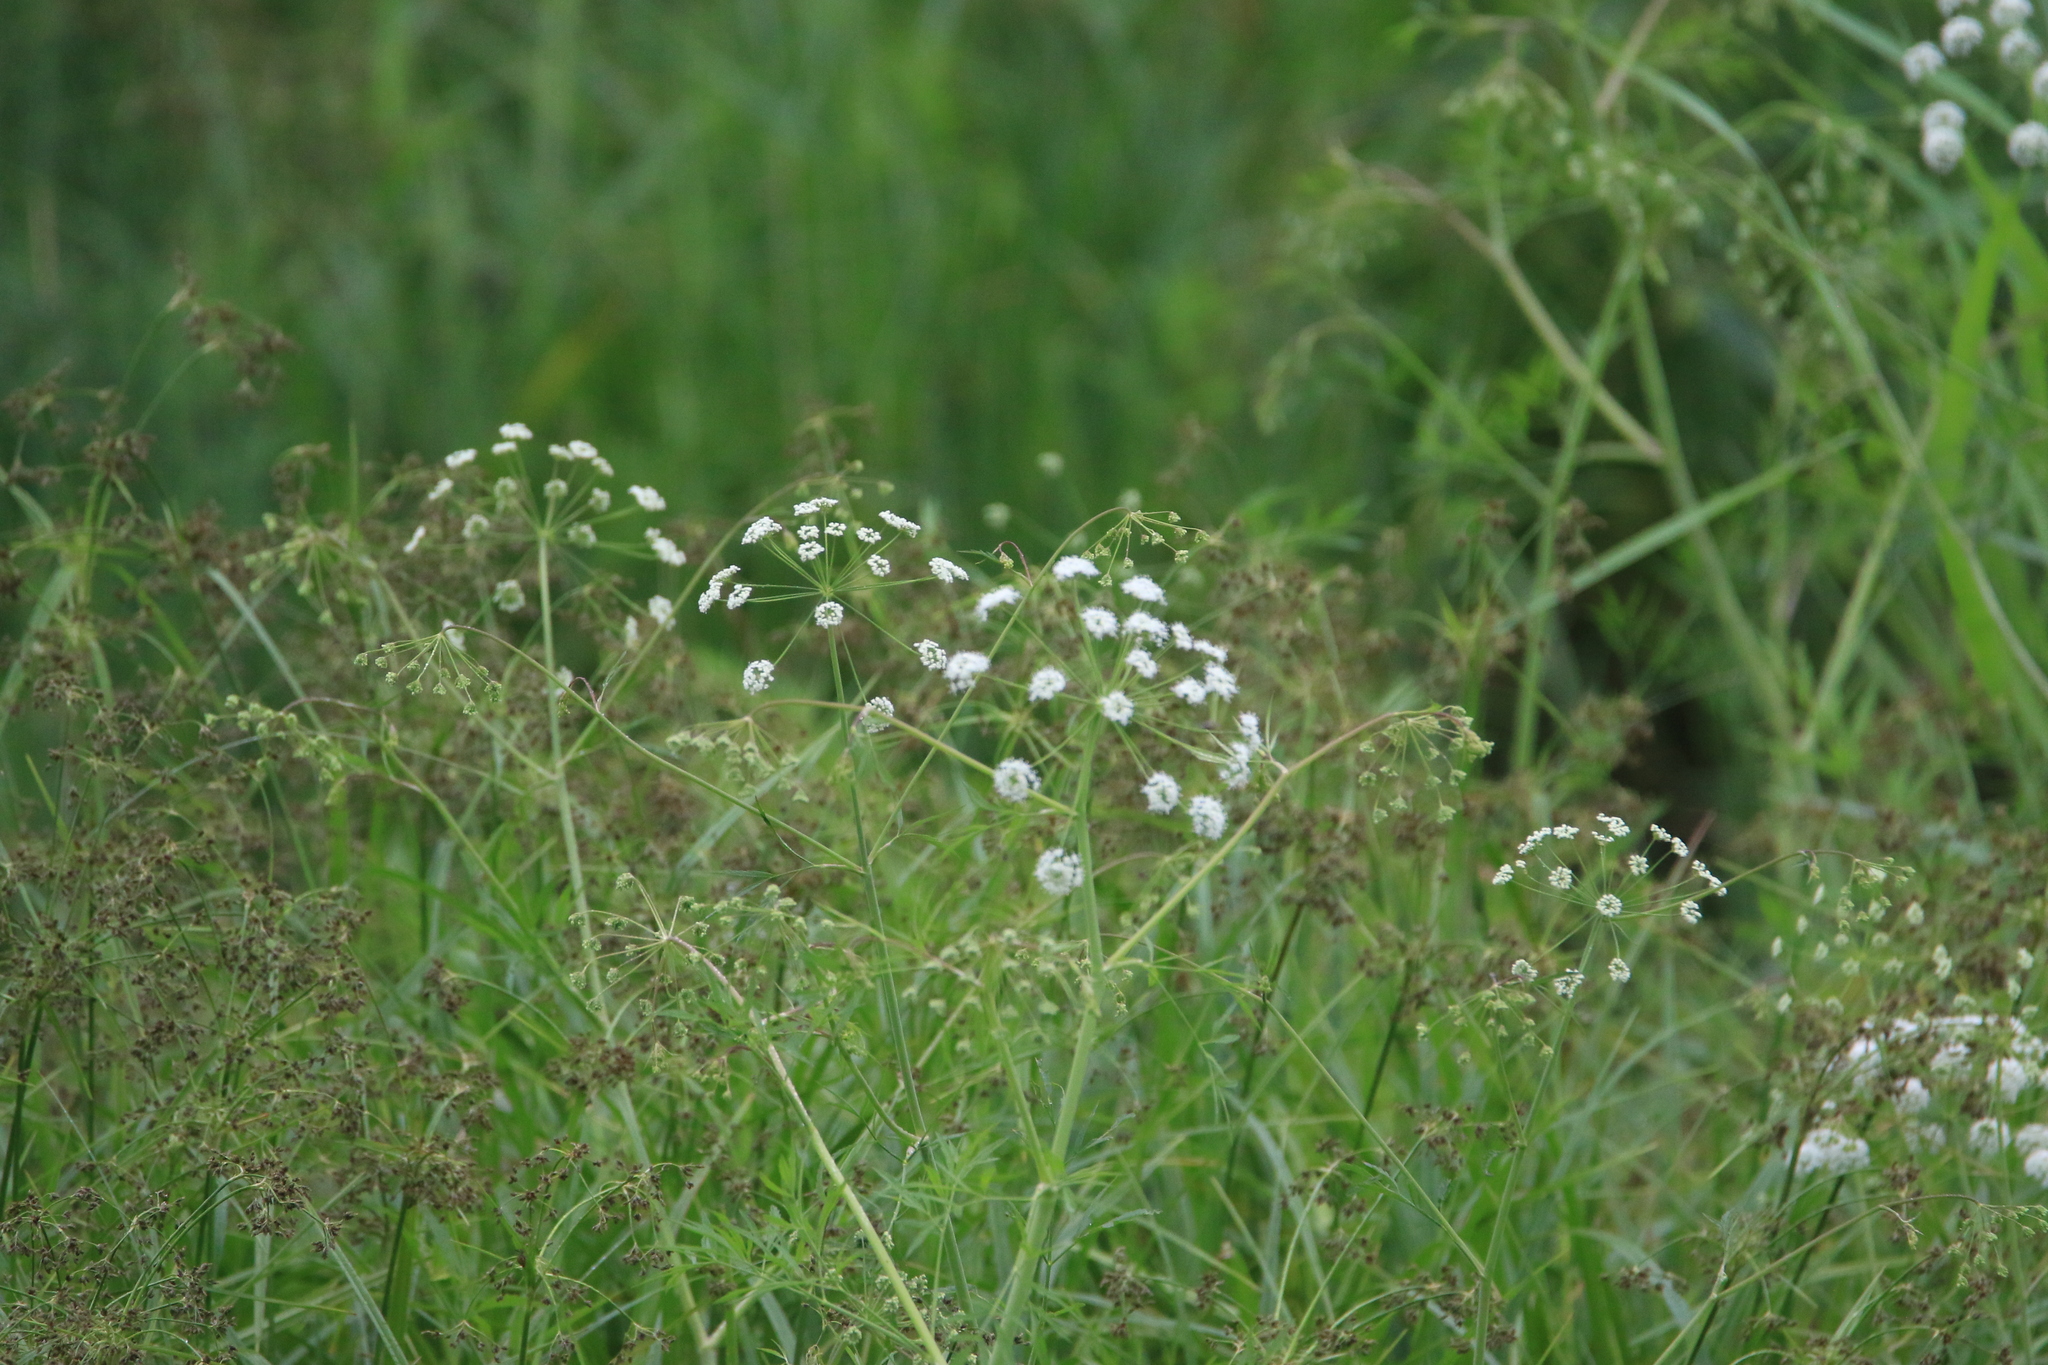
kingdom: Plantae
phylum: Tracheophyta
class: Magnoliopsida
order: Apiales
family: Apiaceae
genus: Cicuta
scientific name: Cicuta virosa
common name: Cowbane
